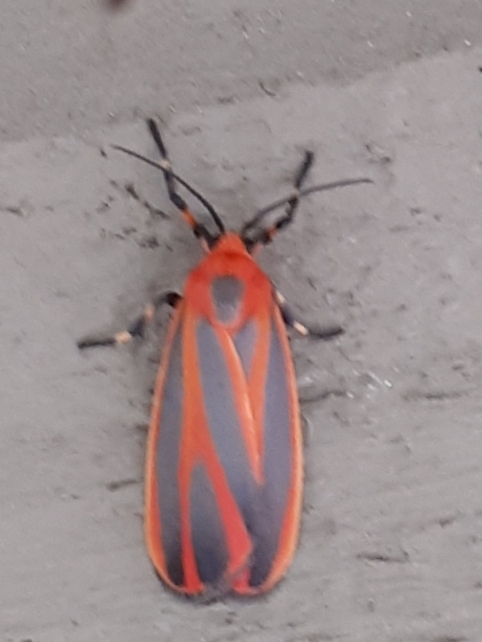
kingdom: Animalia
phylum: Arthropoda
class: Insecta
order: Lepidoptera
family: Erebidae
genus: Hypoprepia
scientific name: Hypoprepia miniata
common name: Scarlet-winged lichen moth
